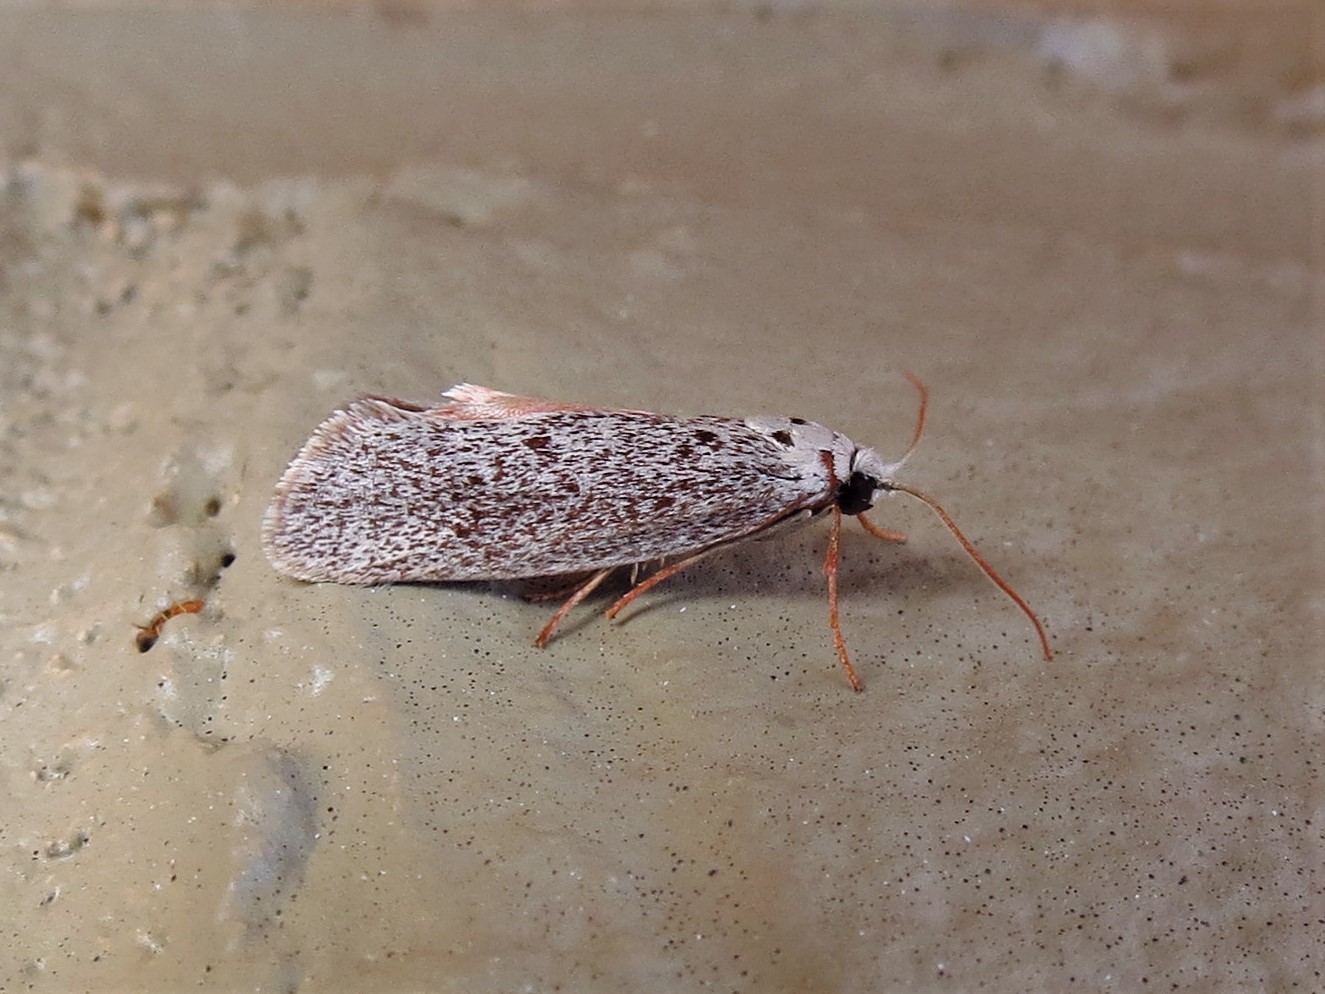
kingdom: Animalia
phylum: Arthropoda
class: Insecta
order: Lepidoptera
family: Lacturidae
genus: Lactura
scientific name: Lactura
